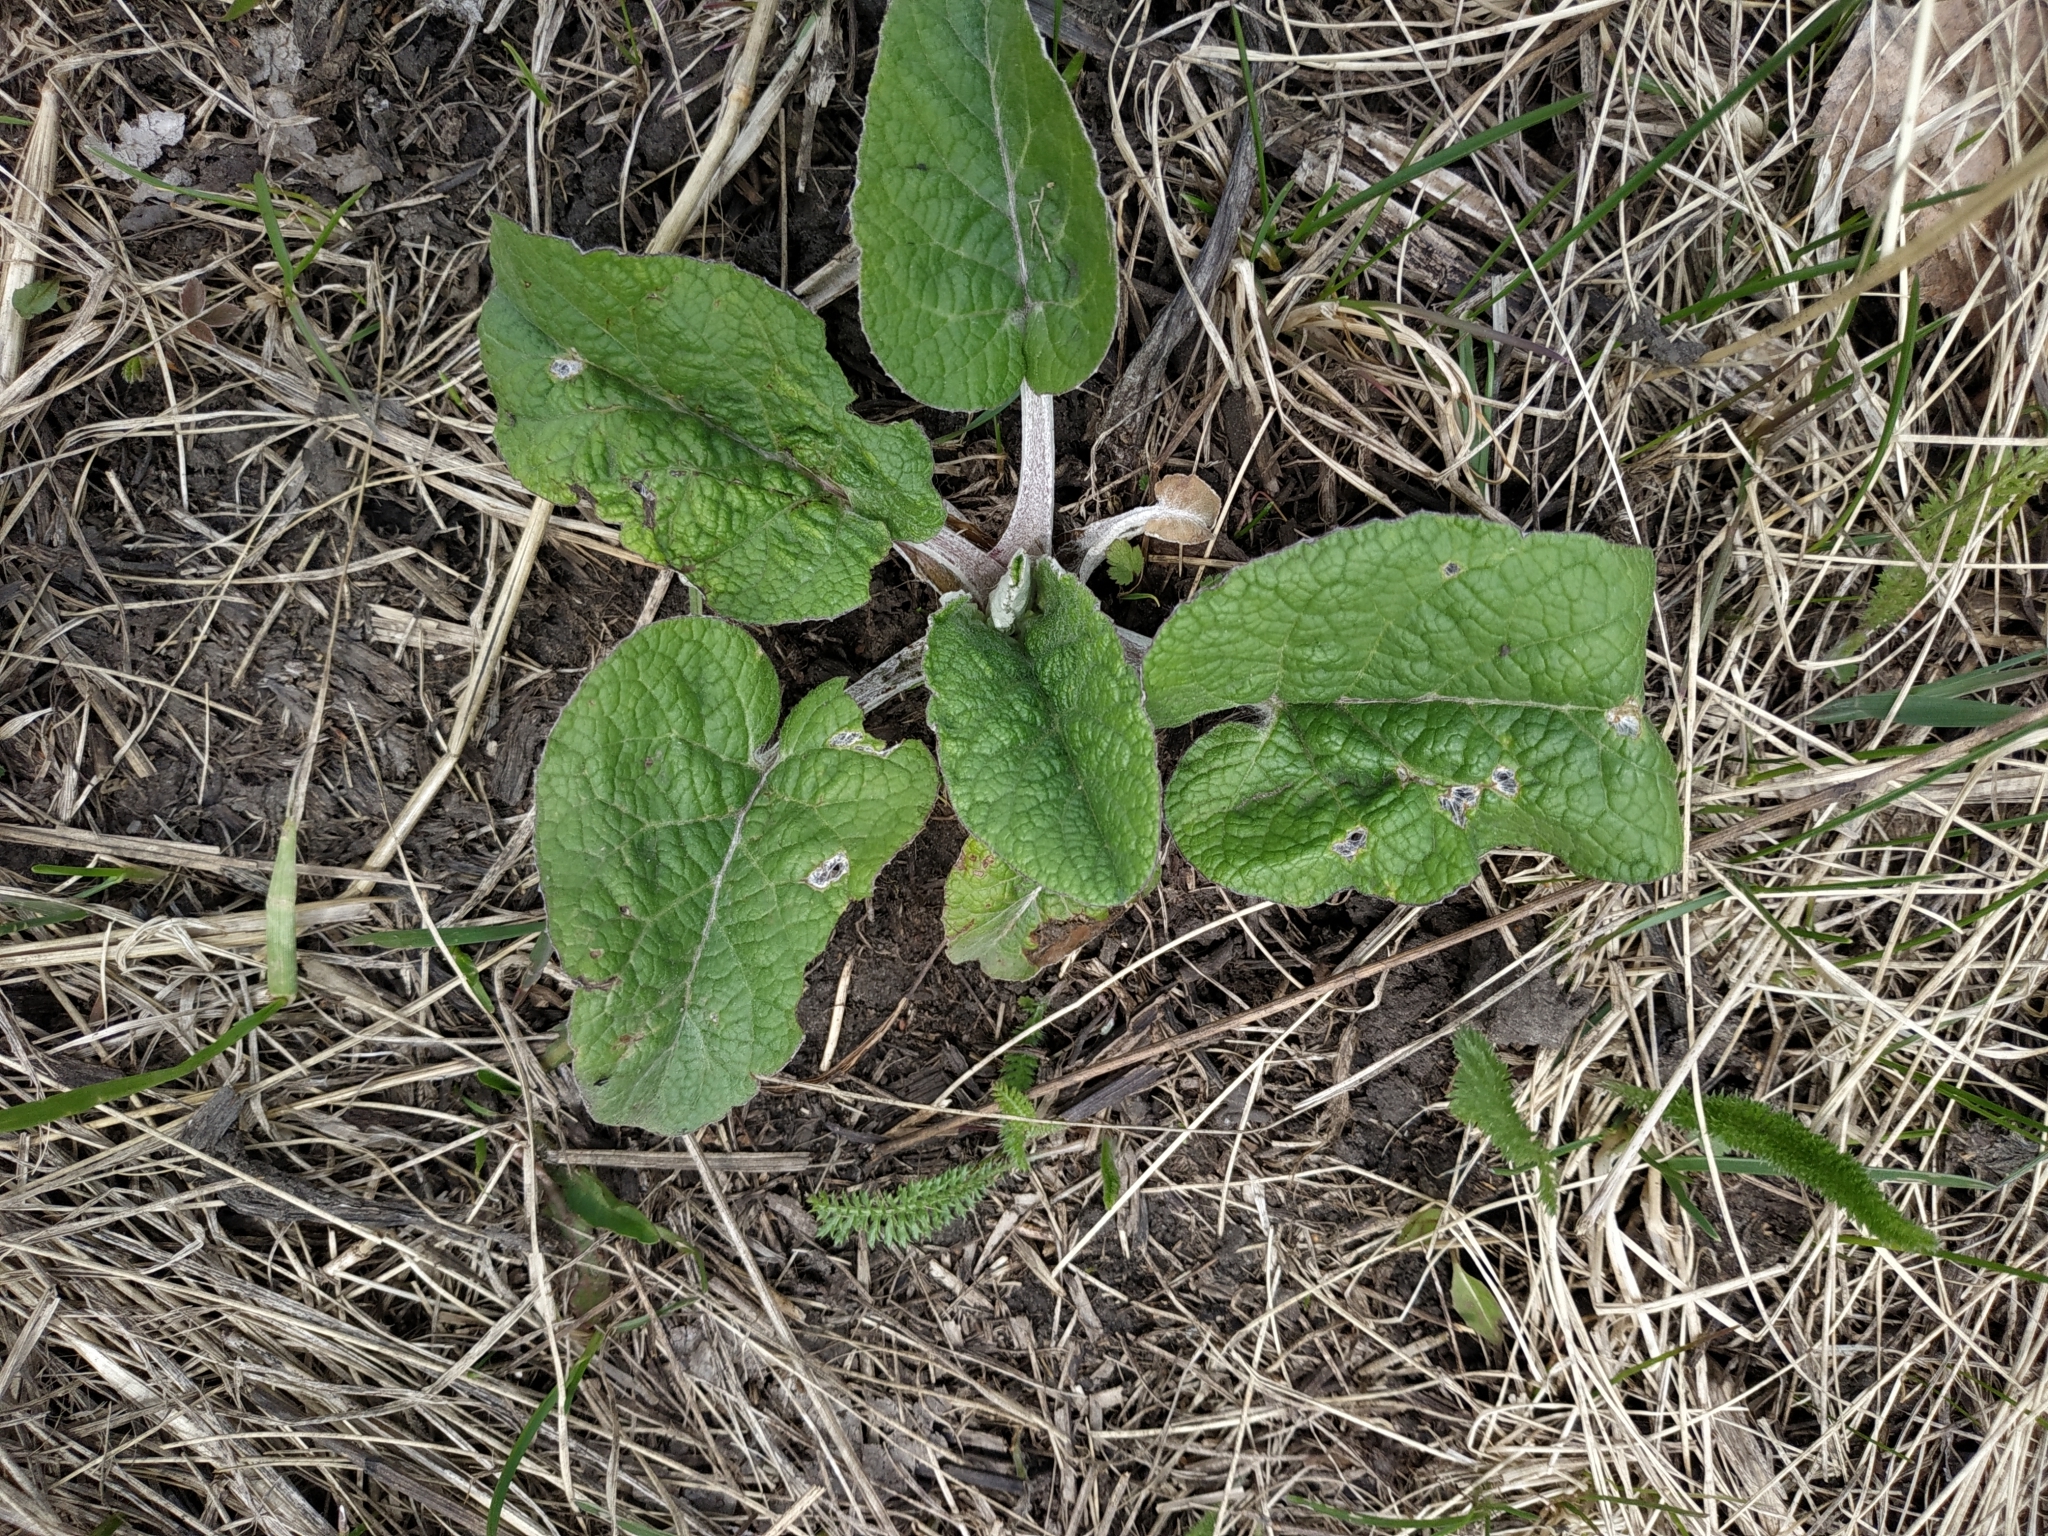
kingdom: Plantae
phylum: Tracheophyta
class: Magnoliopsida
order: Asterales
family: Asteraceae
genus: Arctium
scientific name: Arctium tomentosum
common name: Woolly burdock
